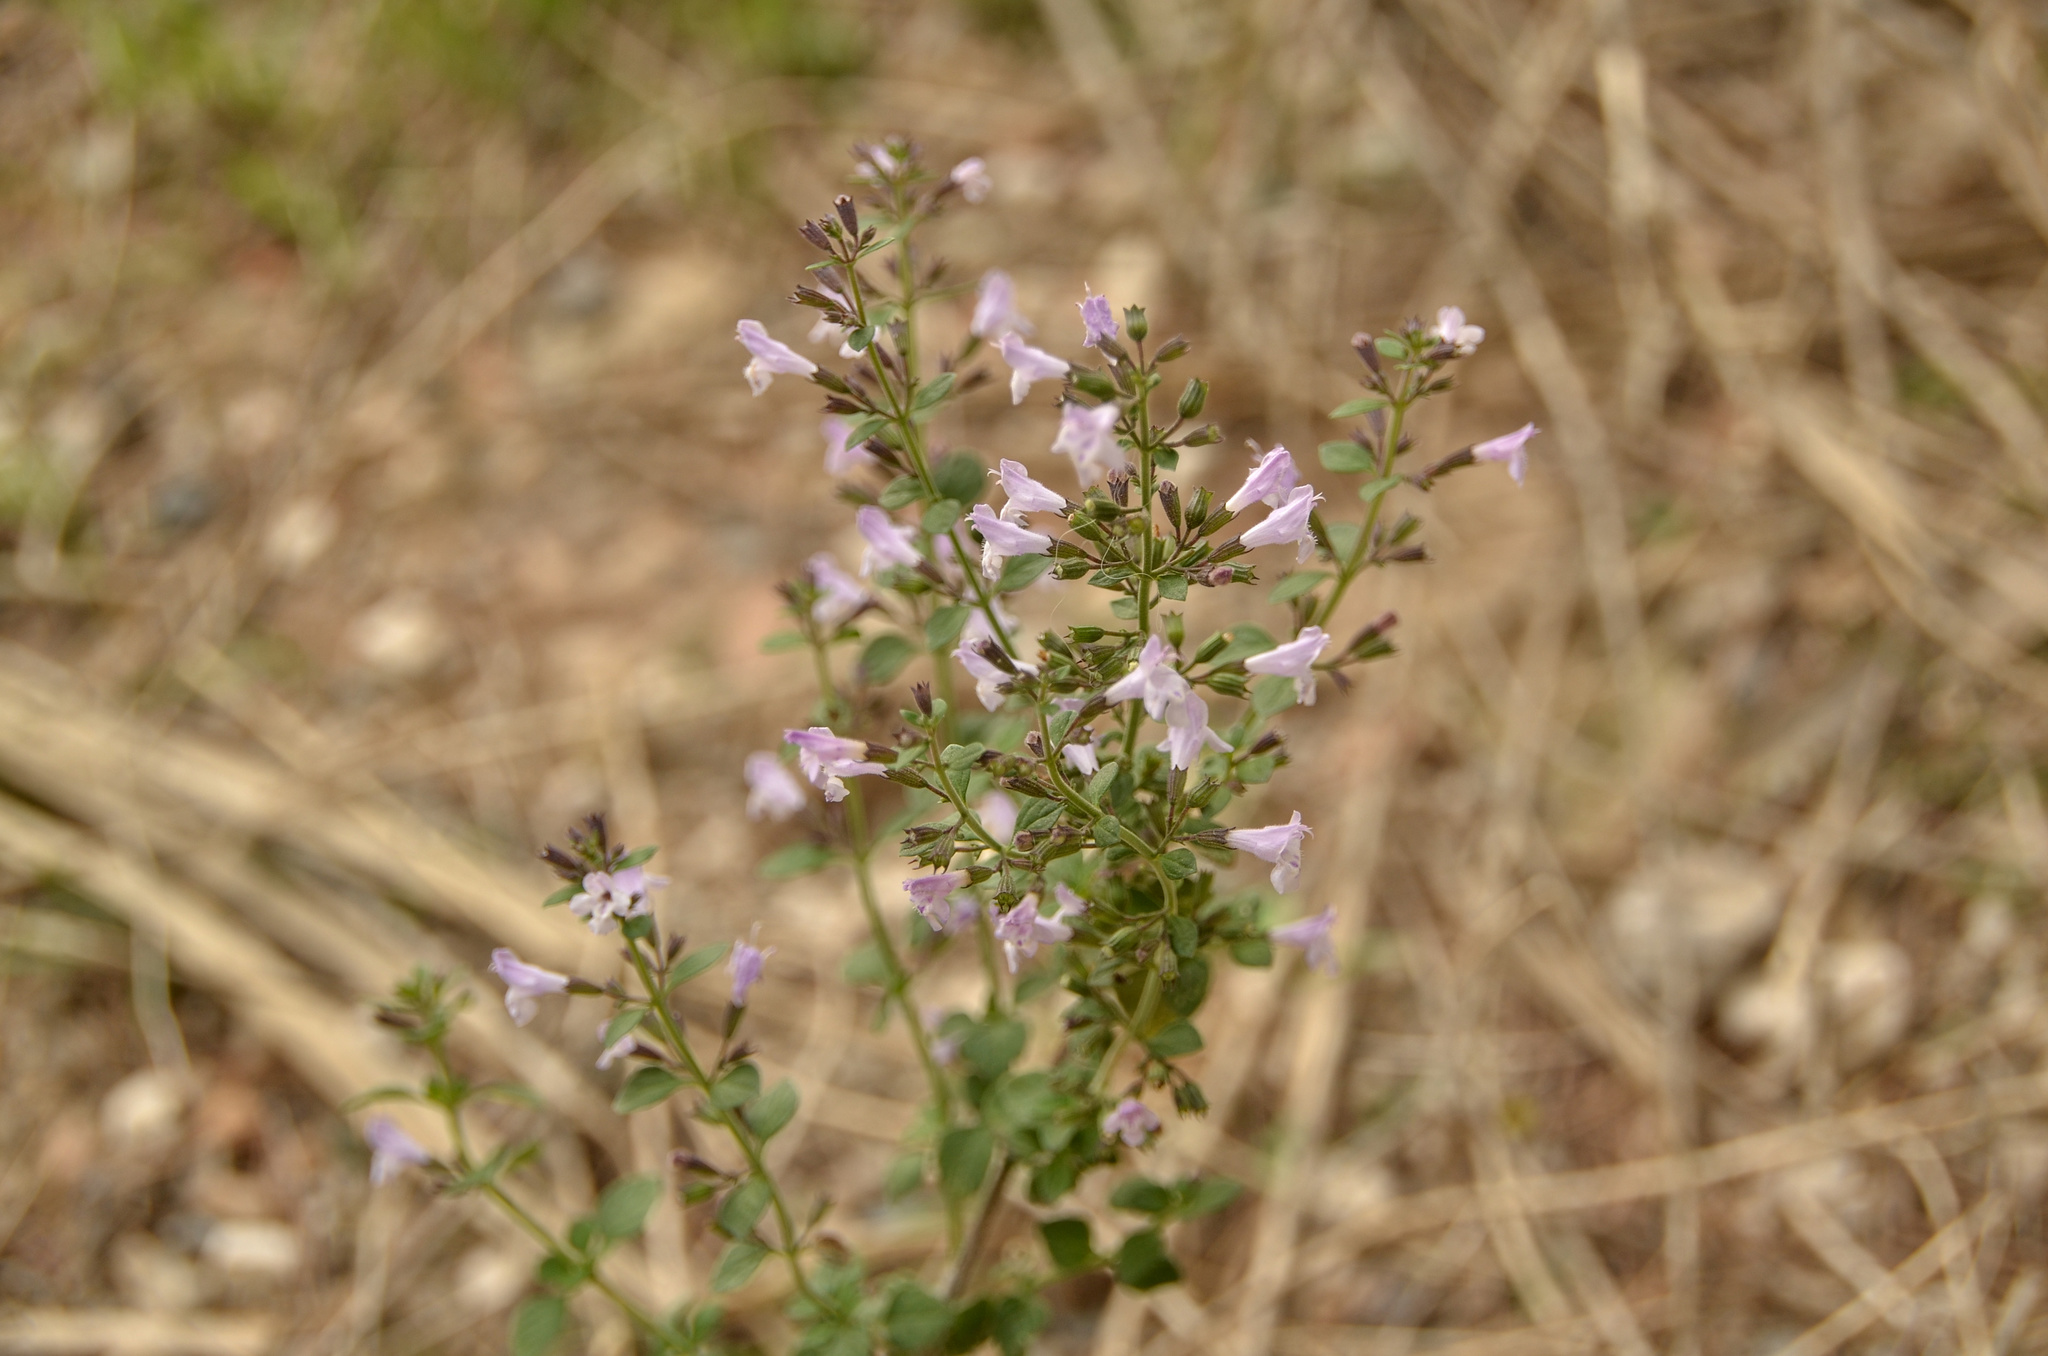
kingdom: Plantae
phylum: Tracheophyta
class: Magnoliopsida
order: Lamiales
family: Lamiaceae
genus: Clinopodium
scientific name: Clinopodium nepeta
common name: Lesser calamint
